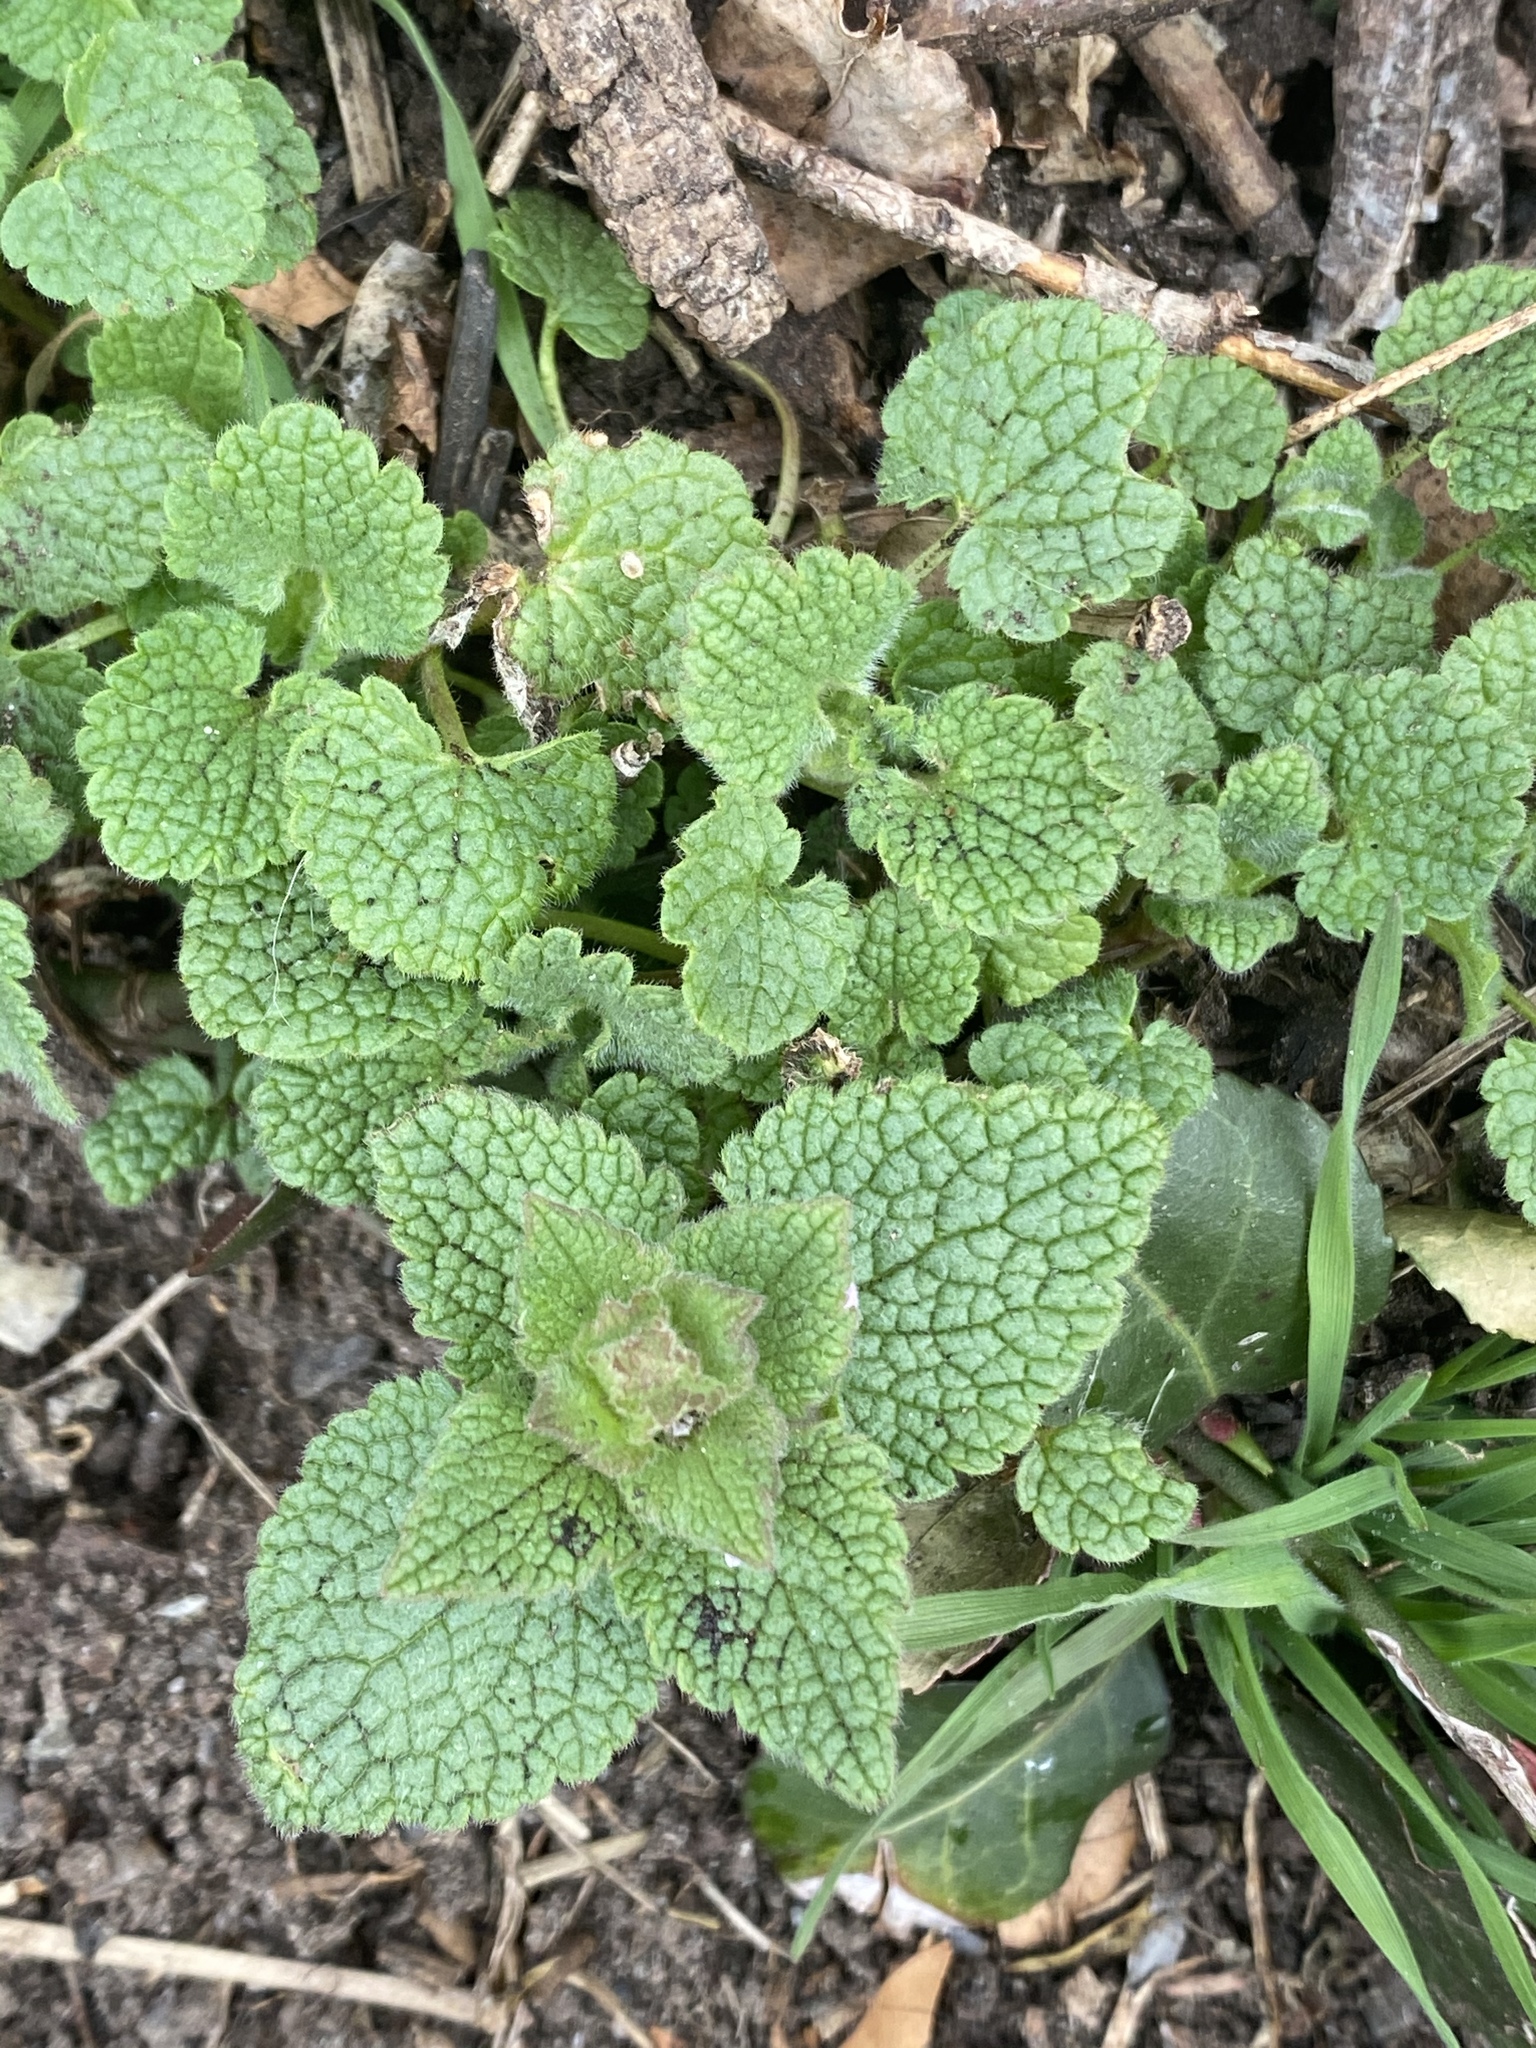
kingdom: Plantae
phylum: Tracheophyta
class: Magnoliopsida
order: Lamiales
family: Lamiaceae
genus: Lamium
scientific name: Lamium purpureum
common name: Red dead-nettle
